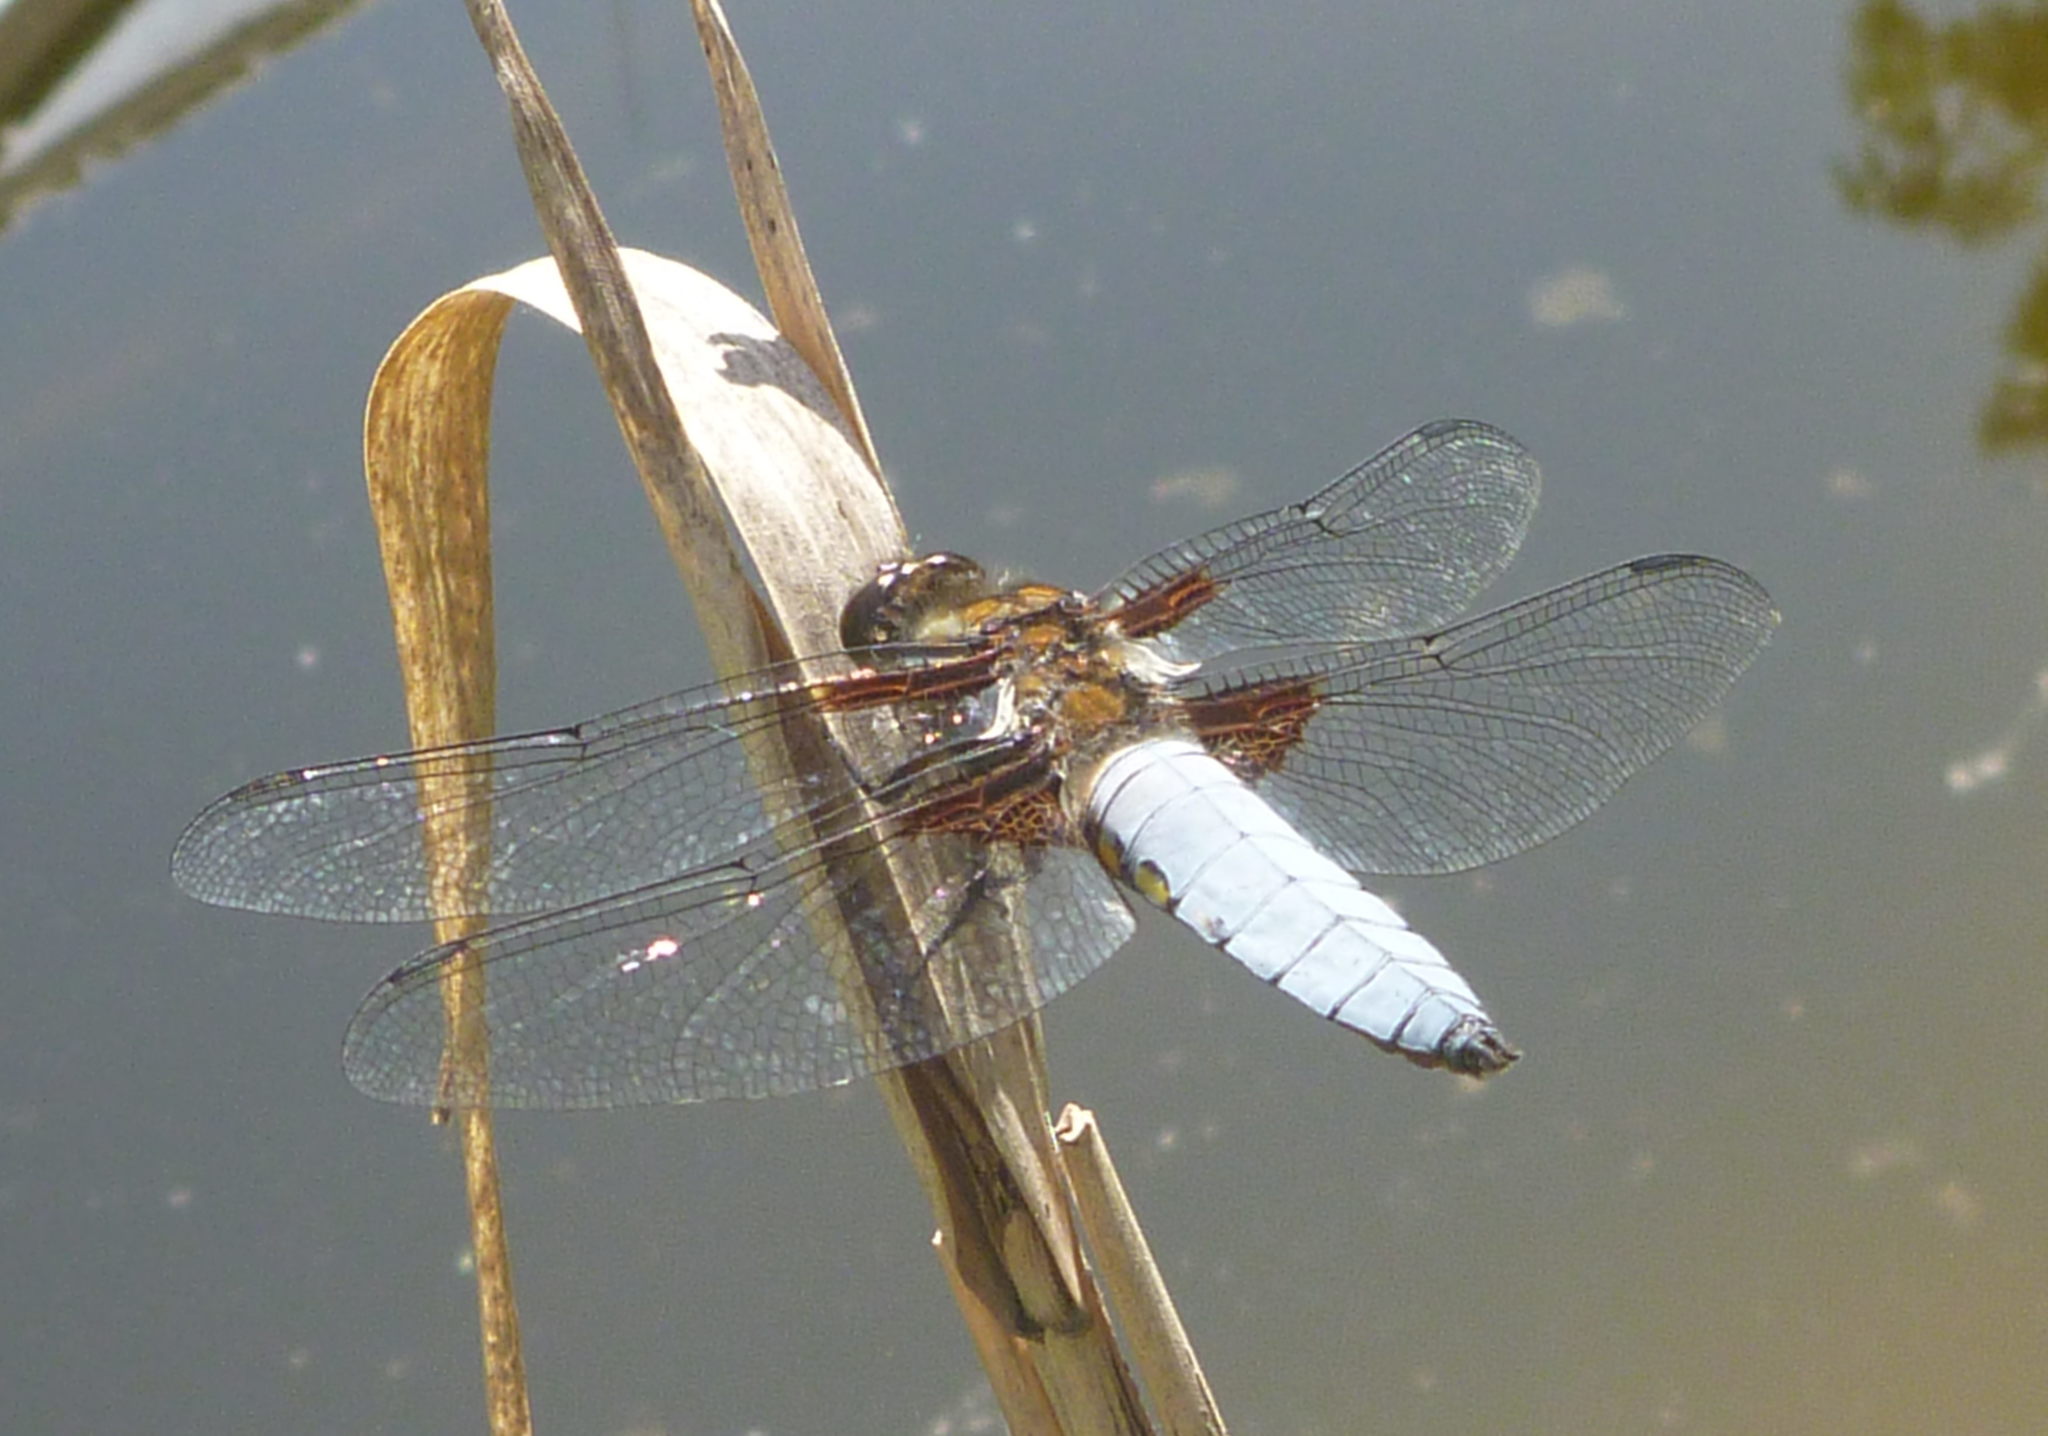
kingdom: Animalia
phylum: Arthropoda
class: Insecta
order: Odonata
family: Libellulidae
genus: Libellula
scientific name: Libellula depressa
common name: Broad-bodied chaser
